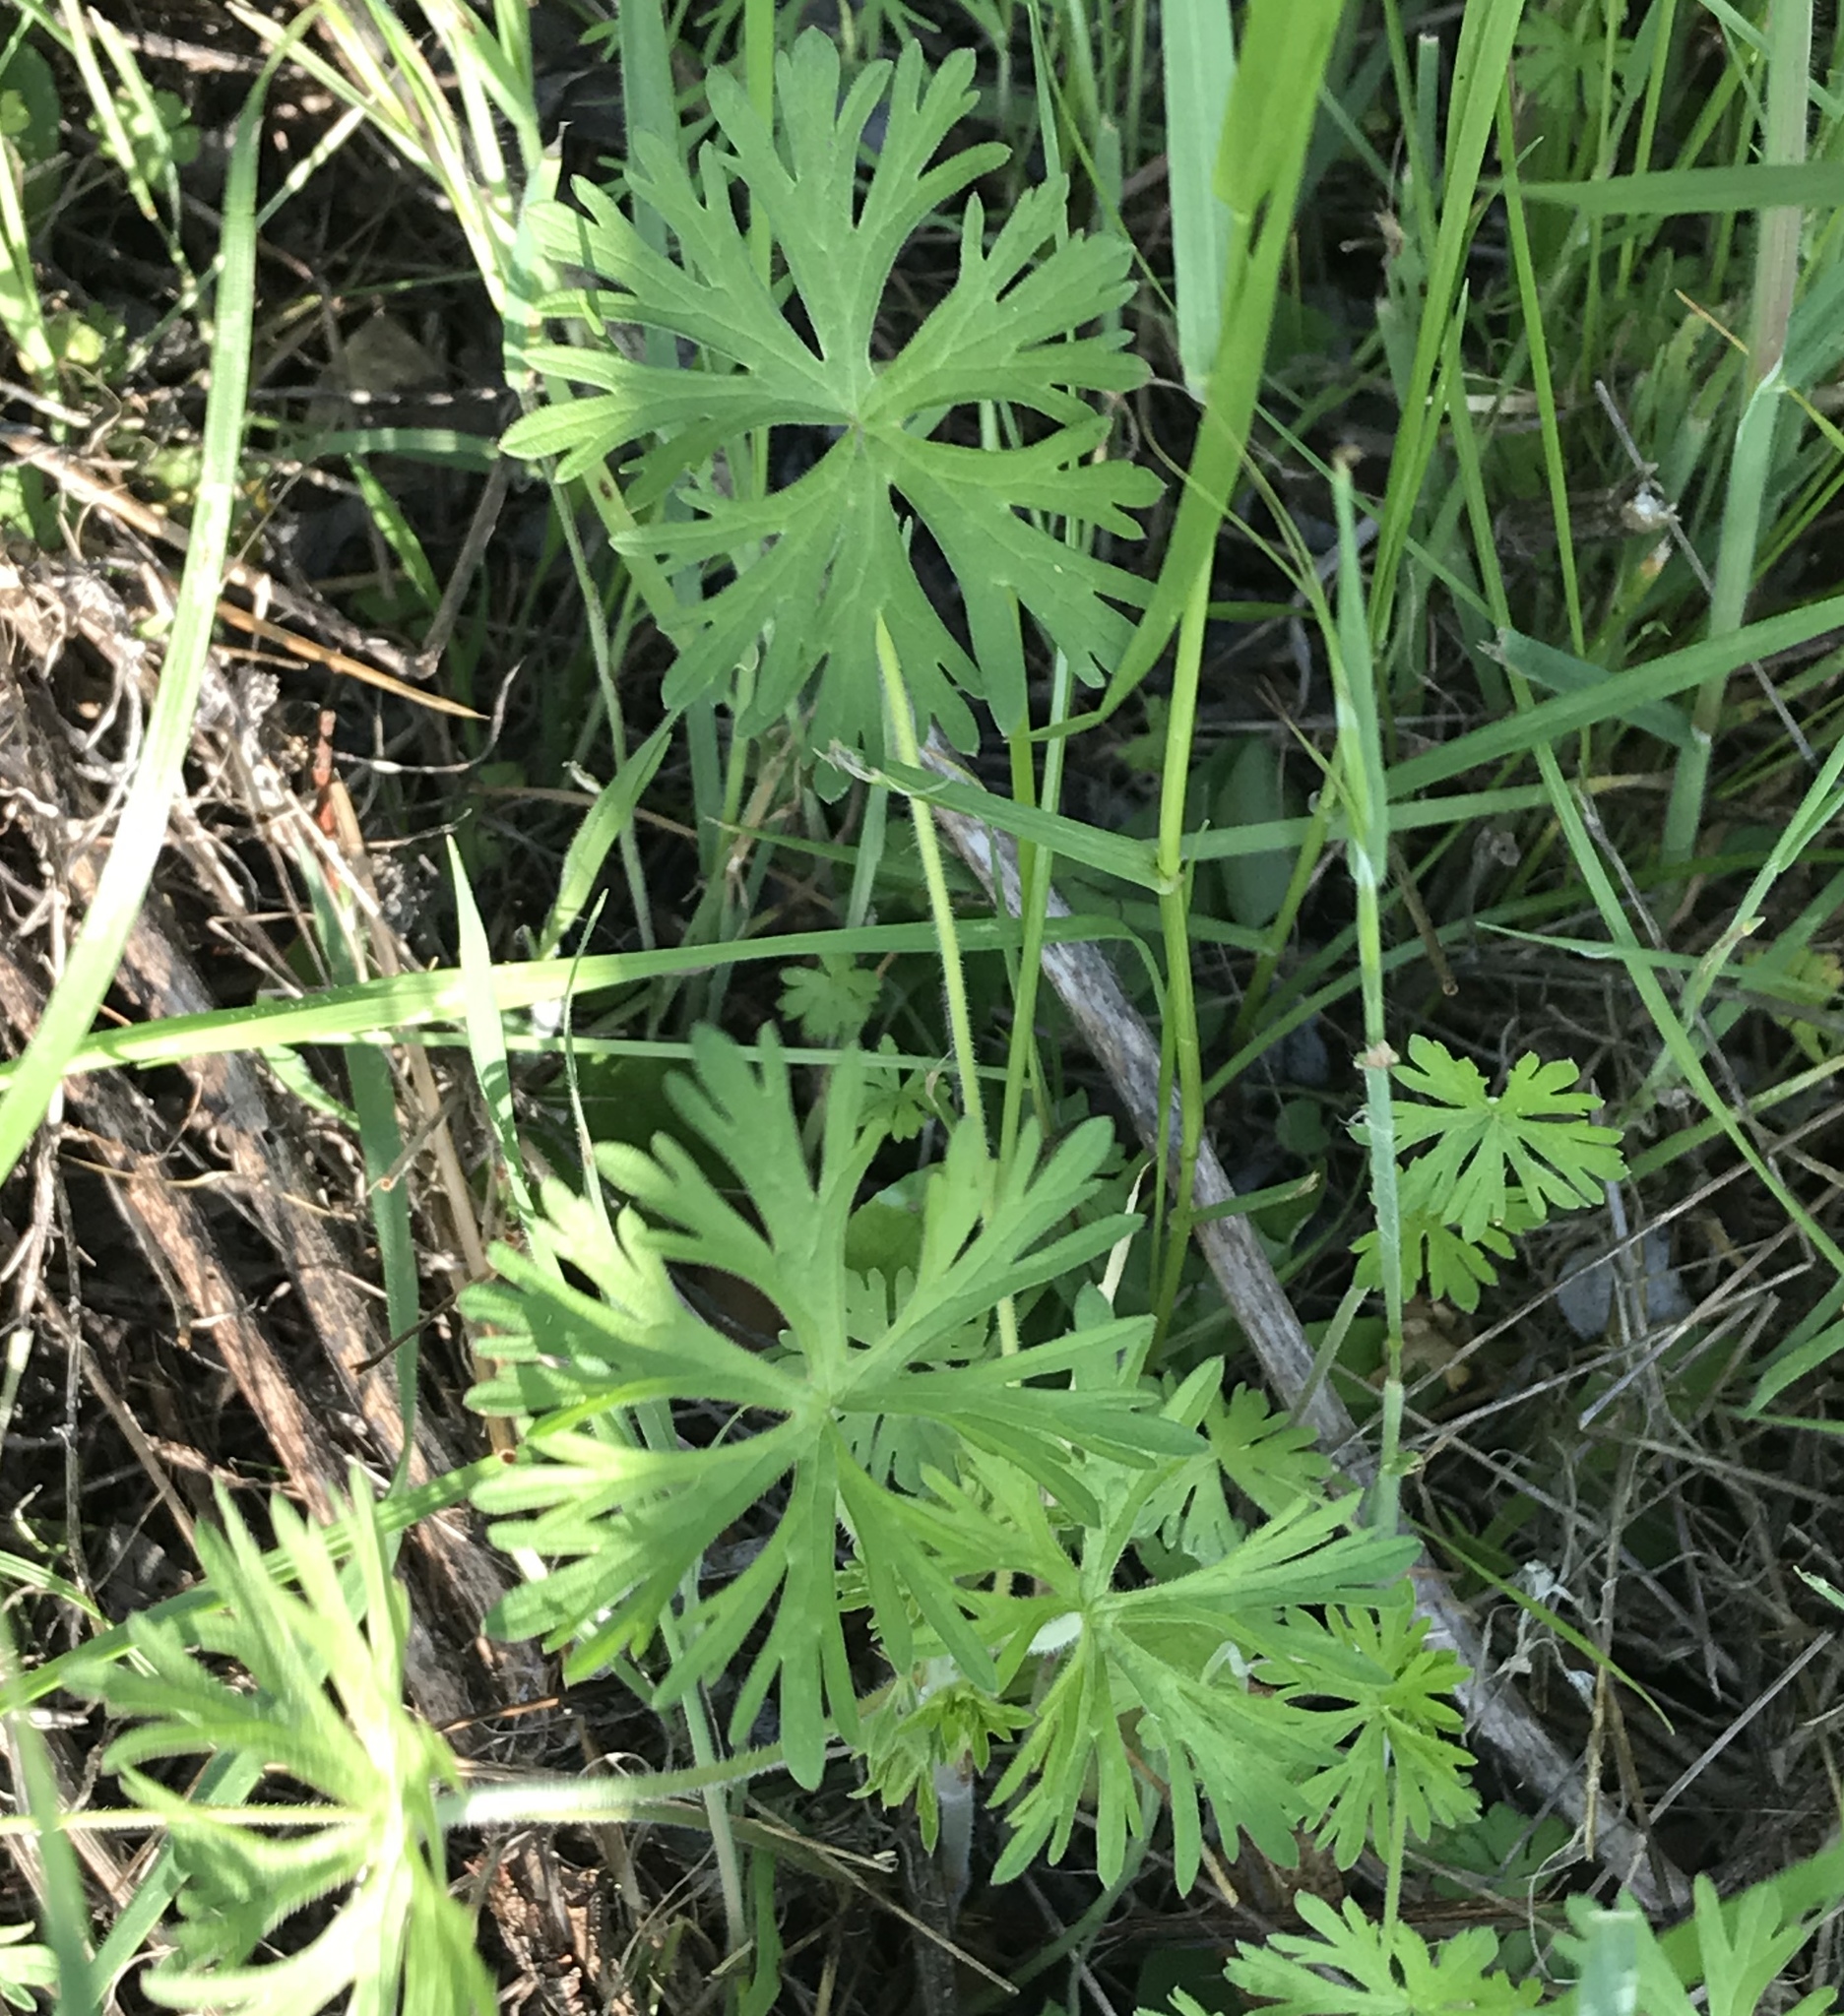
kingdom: Plantae
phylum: Tracheophyta
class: Magnoliopsida
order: Geraniales
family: Geraniaceae
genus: Geranium
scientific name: Geranium
